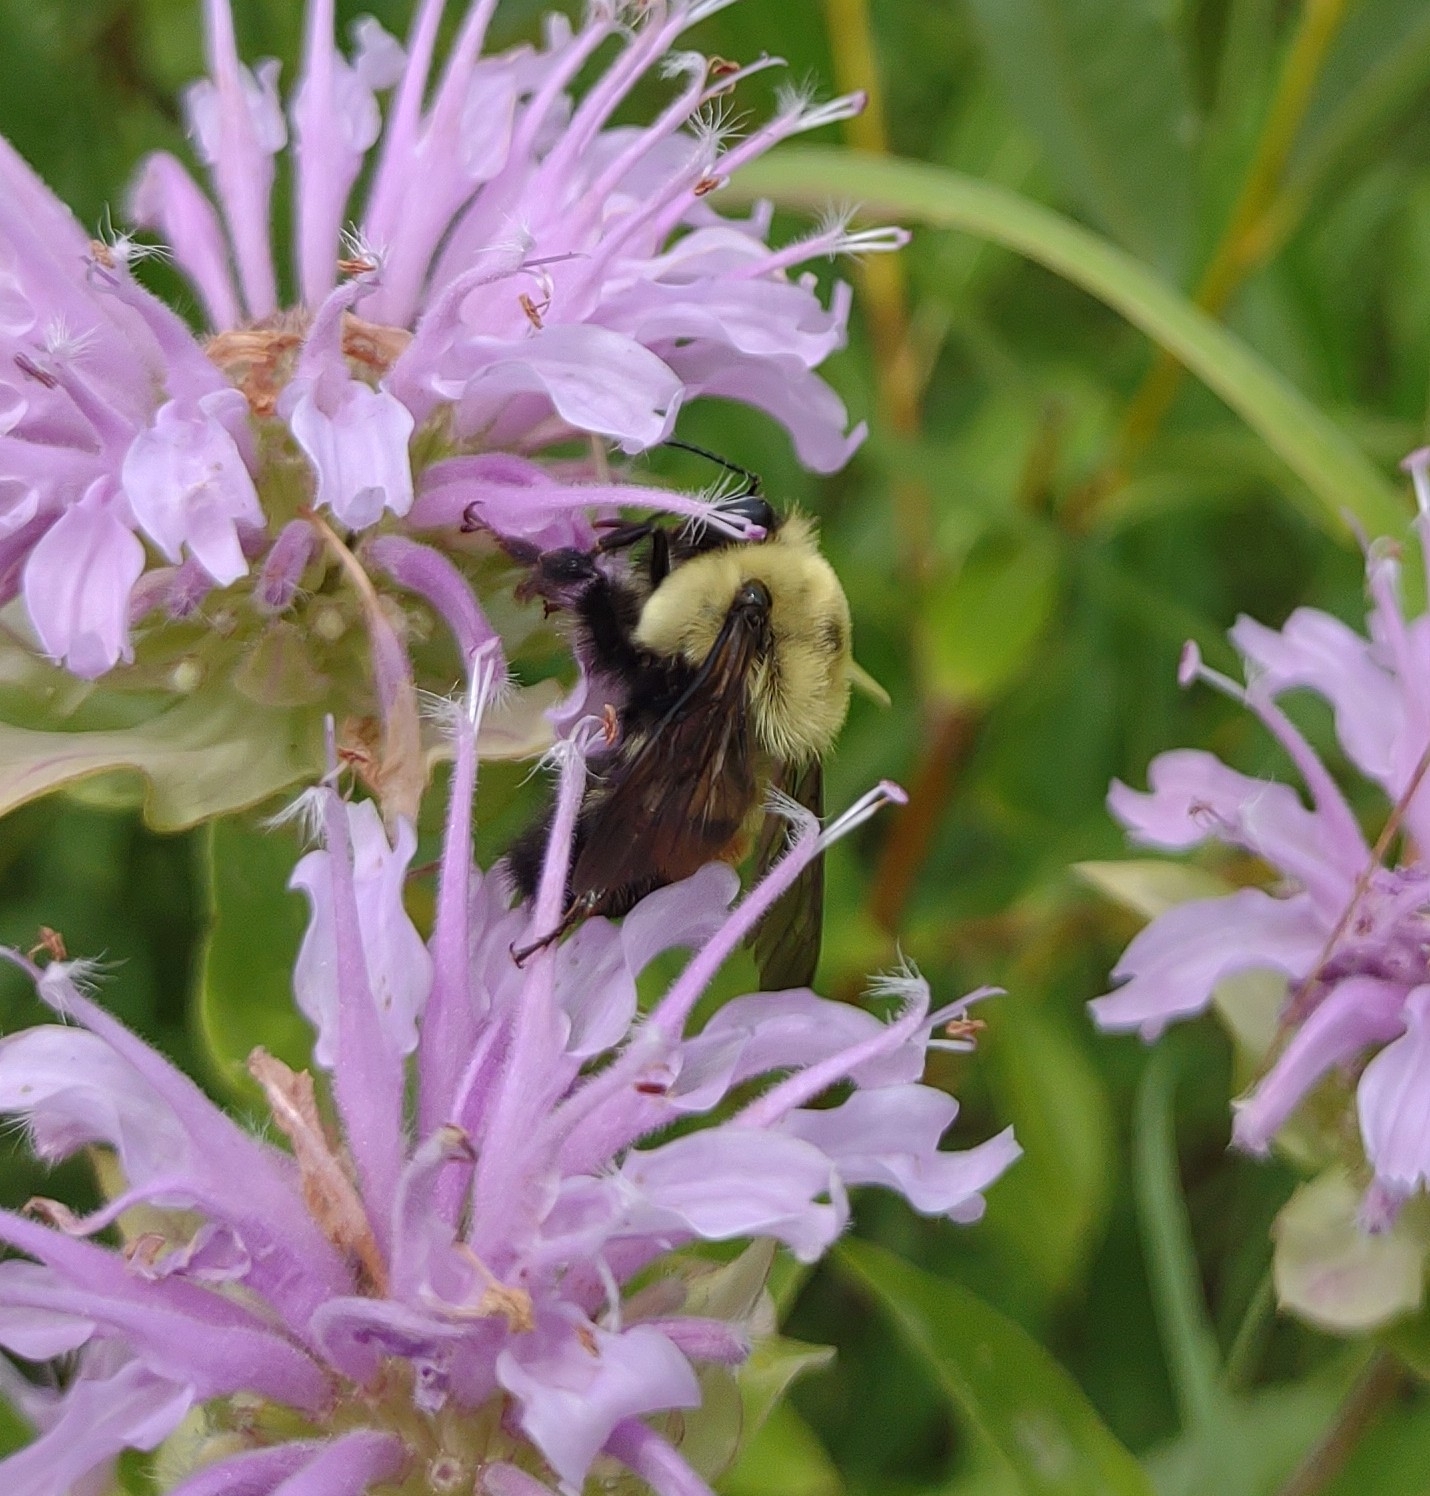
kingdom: Animalia
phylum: Arthropoda
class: Insecta
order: Hymenoptera
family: Apidae
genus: Bombus
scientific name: Bombus griseocollis
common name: Brown-belted bumble bee
